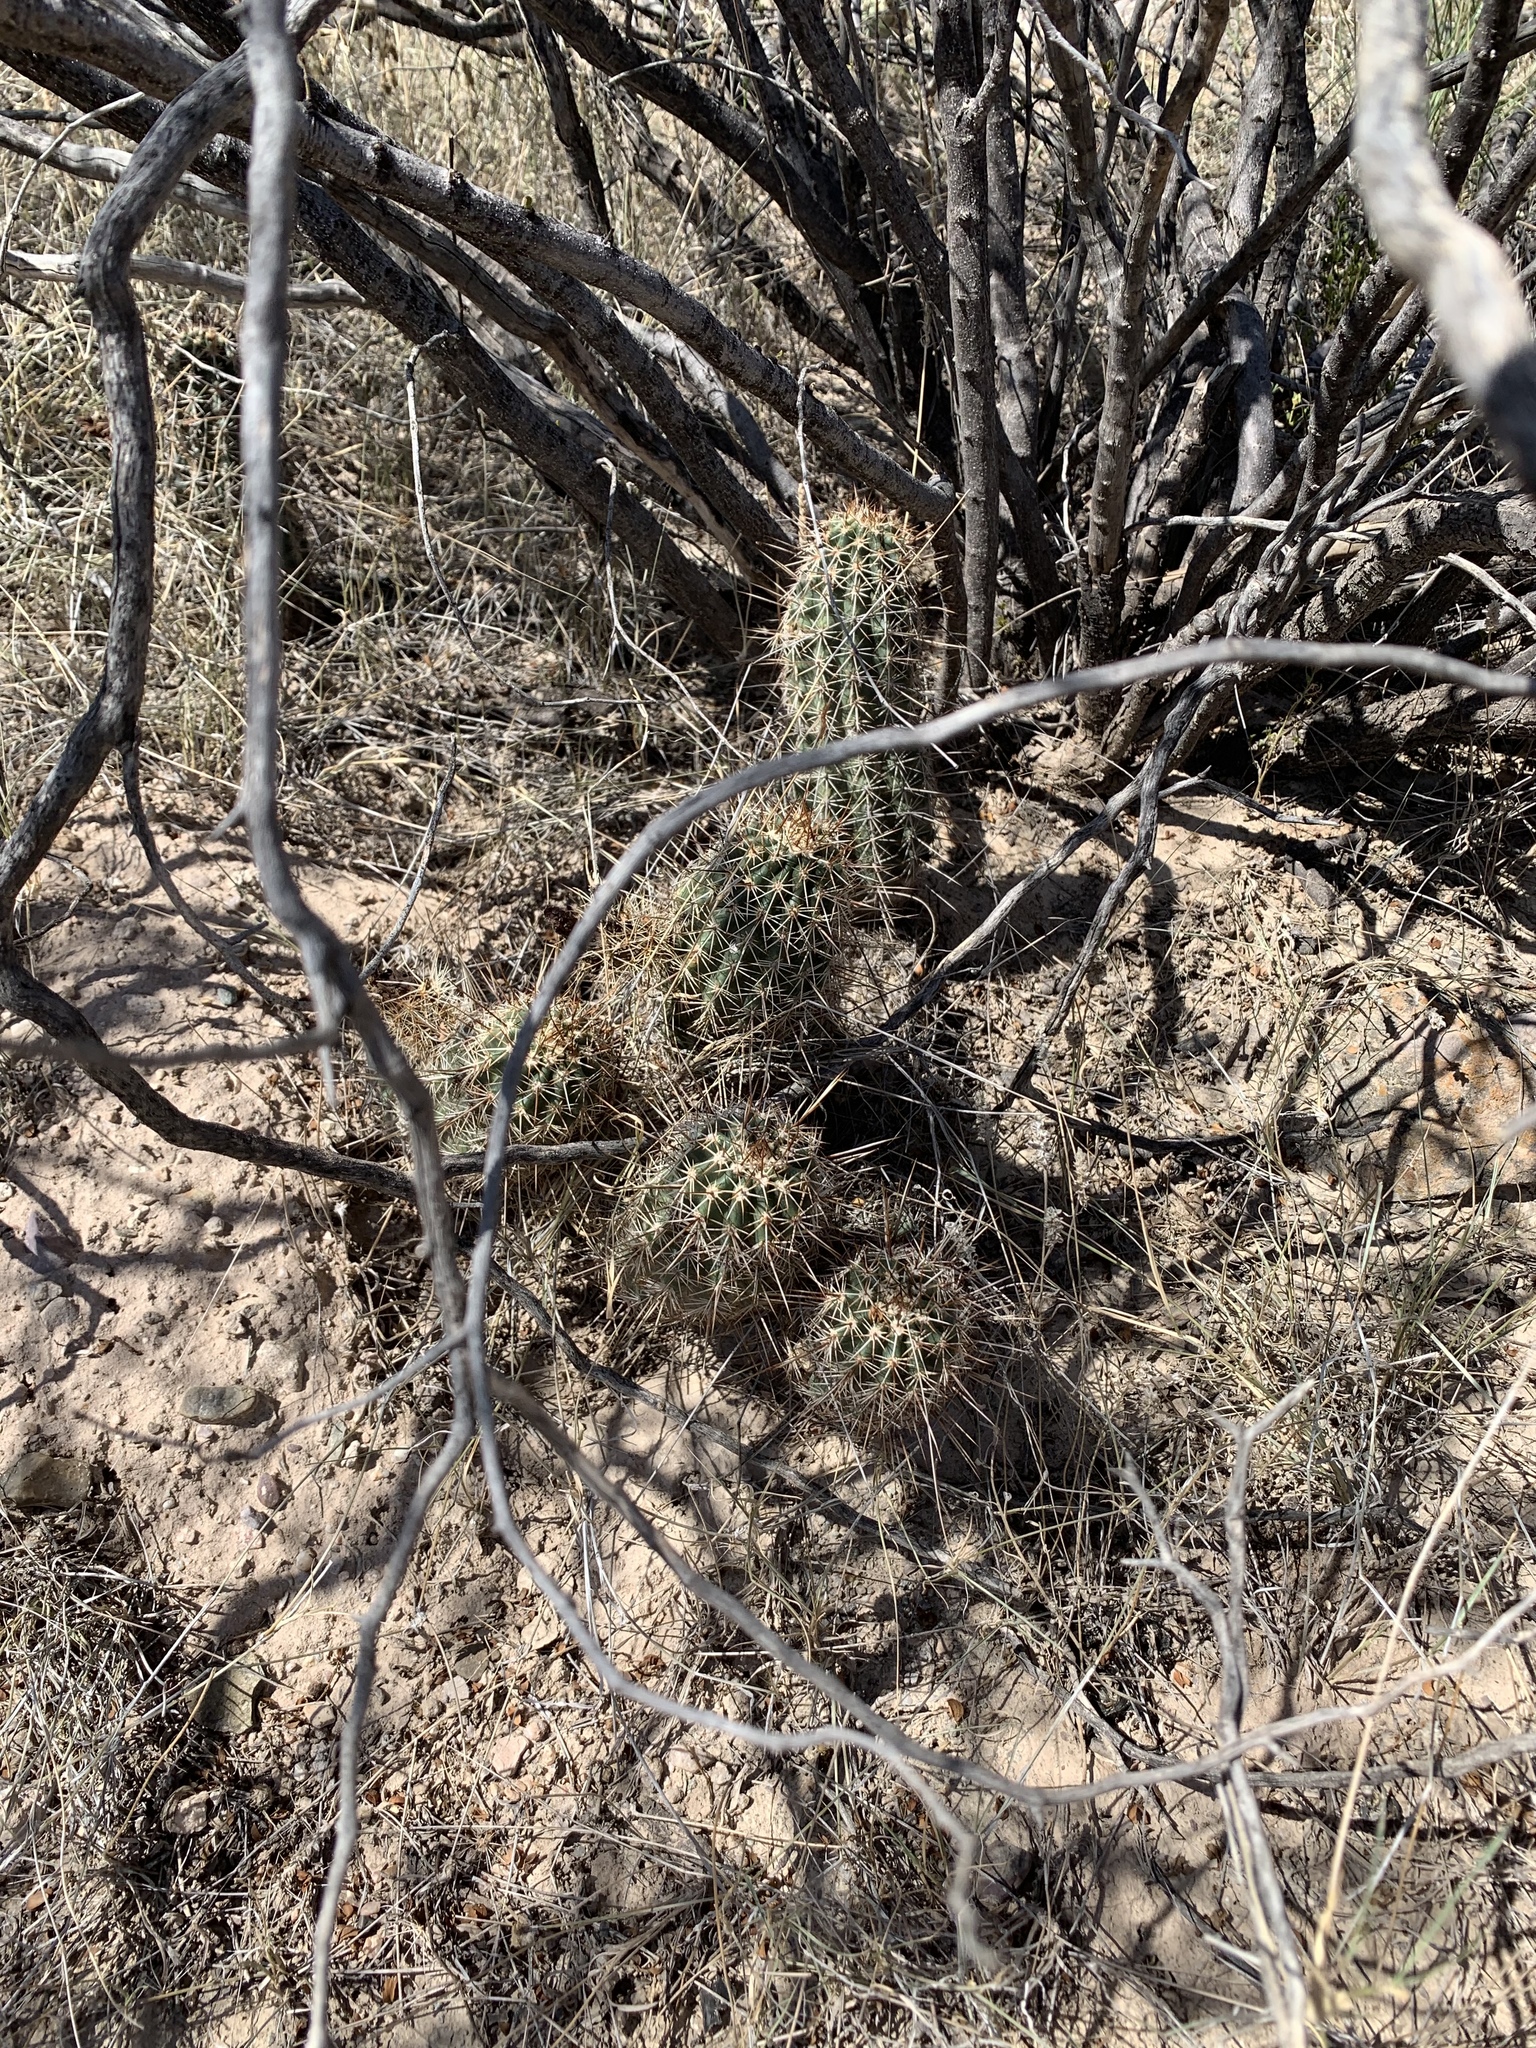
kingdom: Plantae
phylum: Tracheophyta
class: Magnoliopsida
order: Caryophyllales
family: Cactaceae
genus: Echinocereus
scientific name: Echinocereus fasciculatus
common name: Bundle hedgehog
